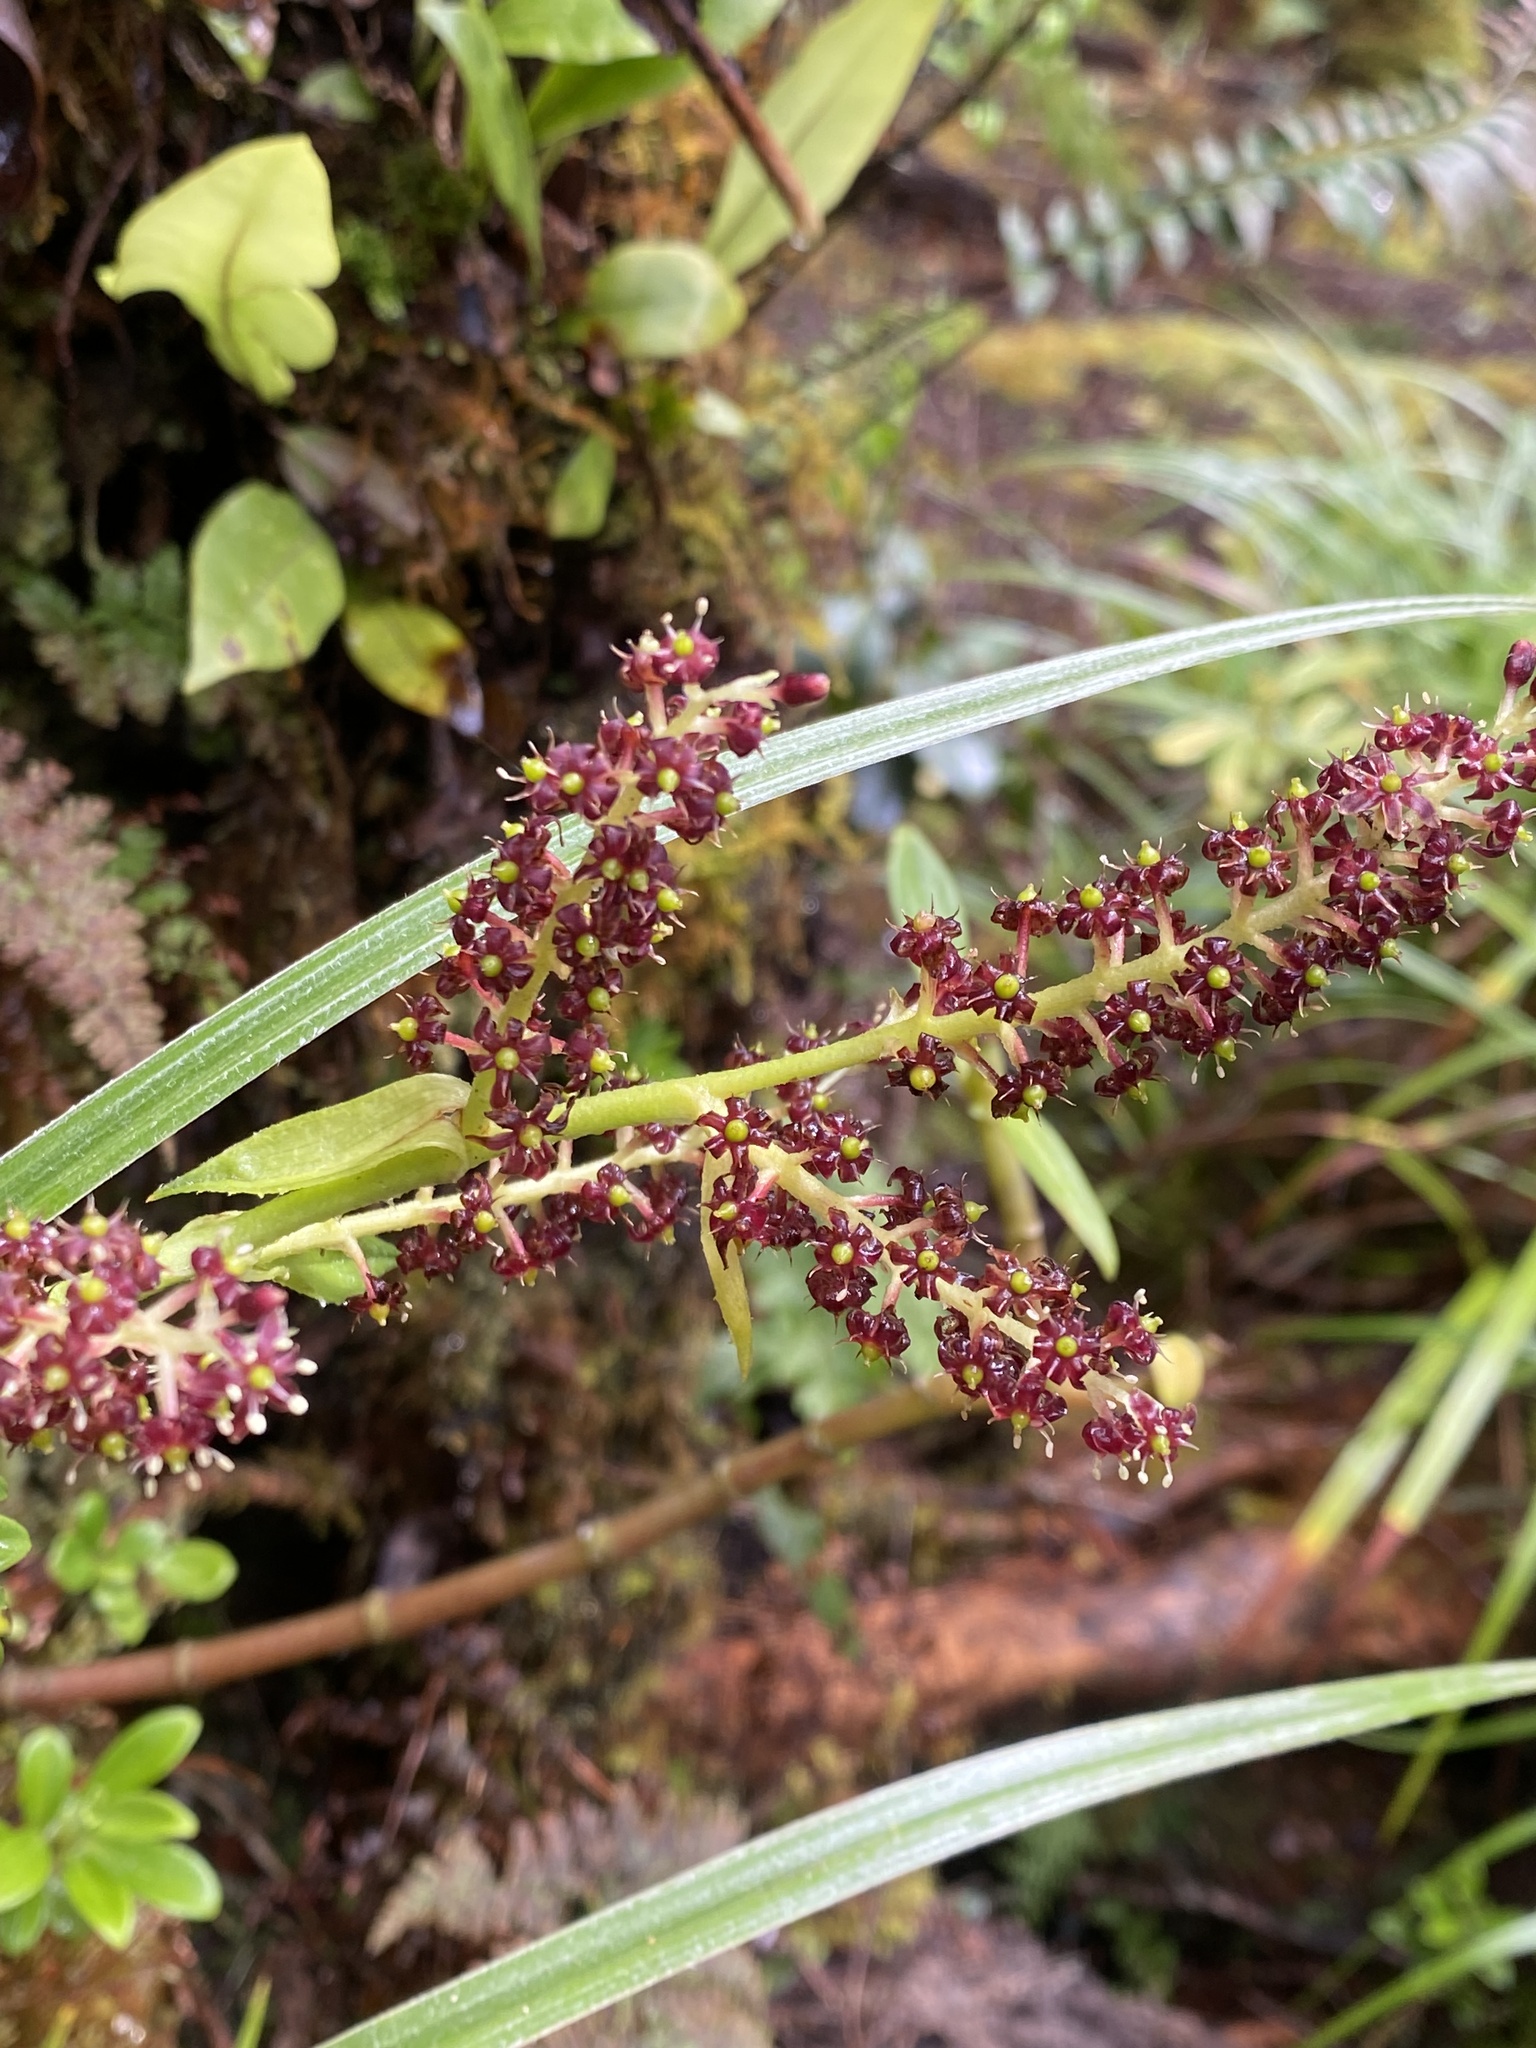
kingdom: Plantae
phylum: Tracheophyta
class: Liliopsida
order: Asparagales
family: Asteliaceae
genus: Astelia
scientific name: Astelia argyrocoma
